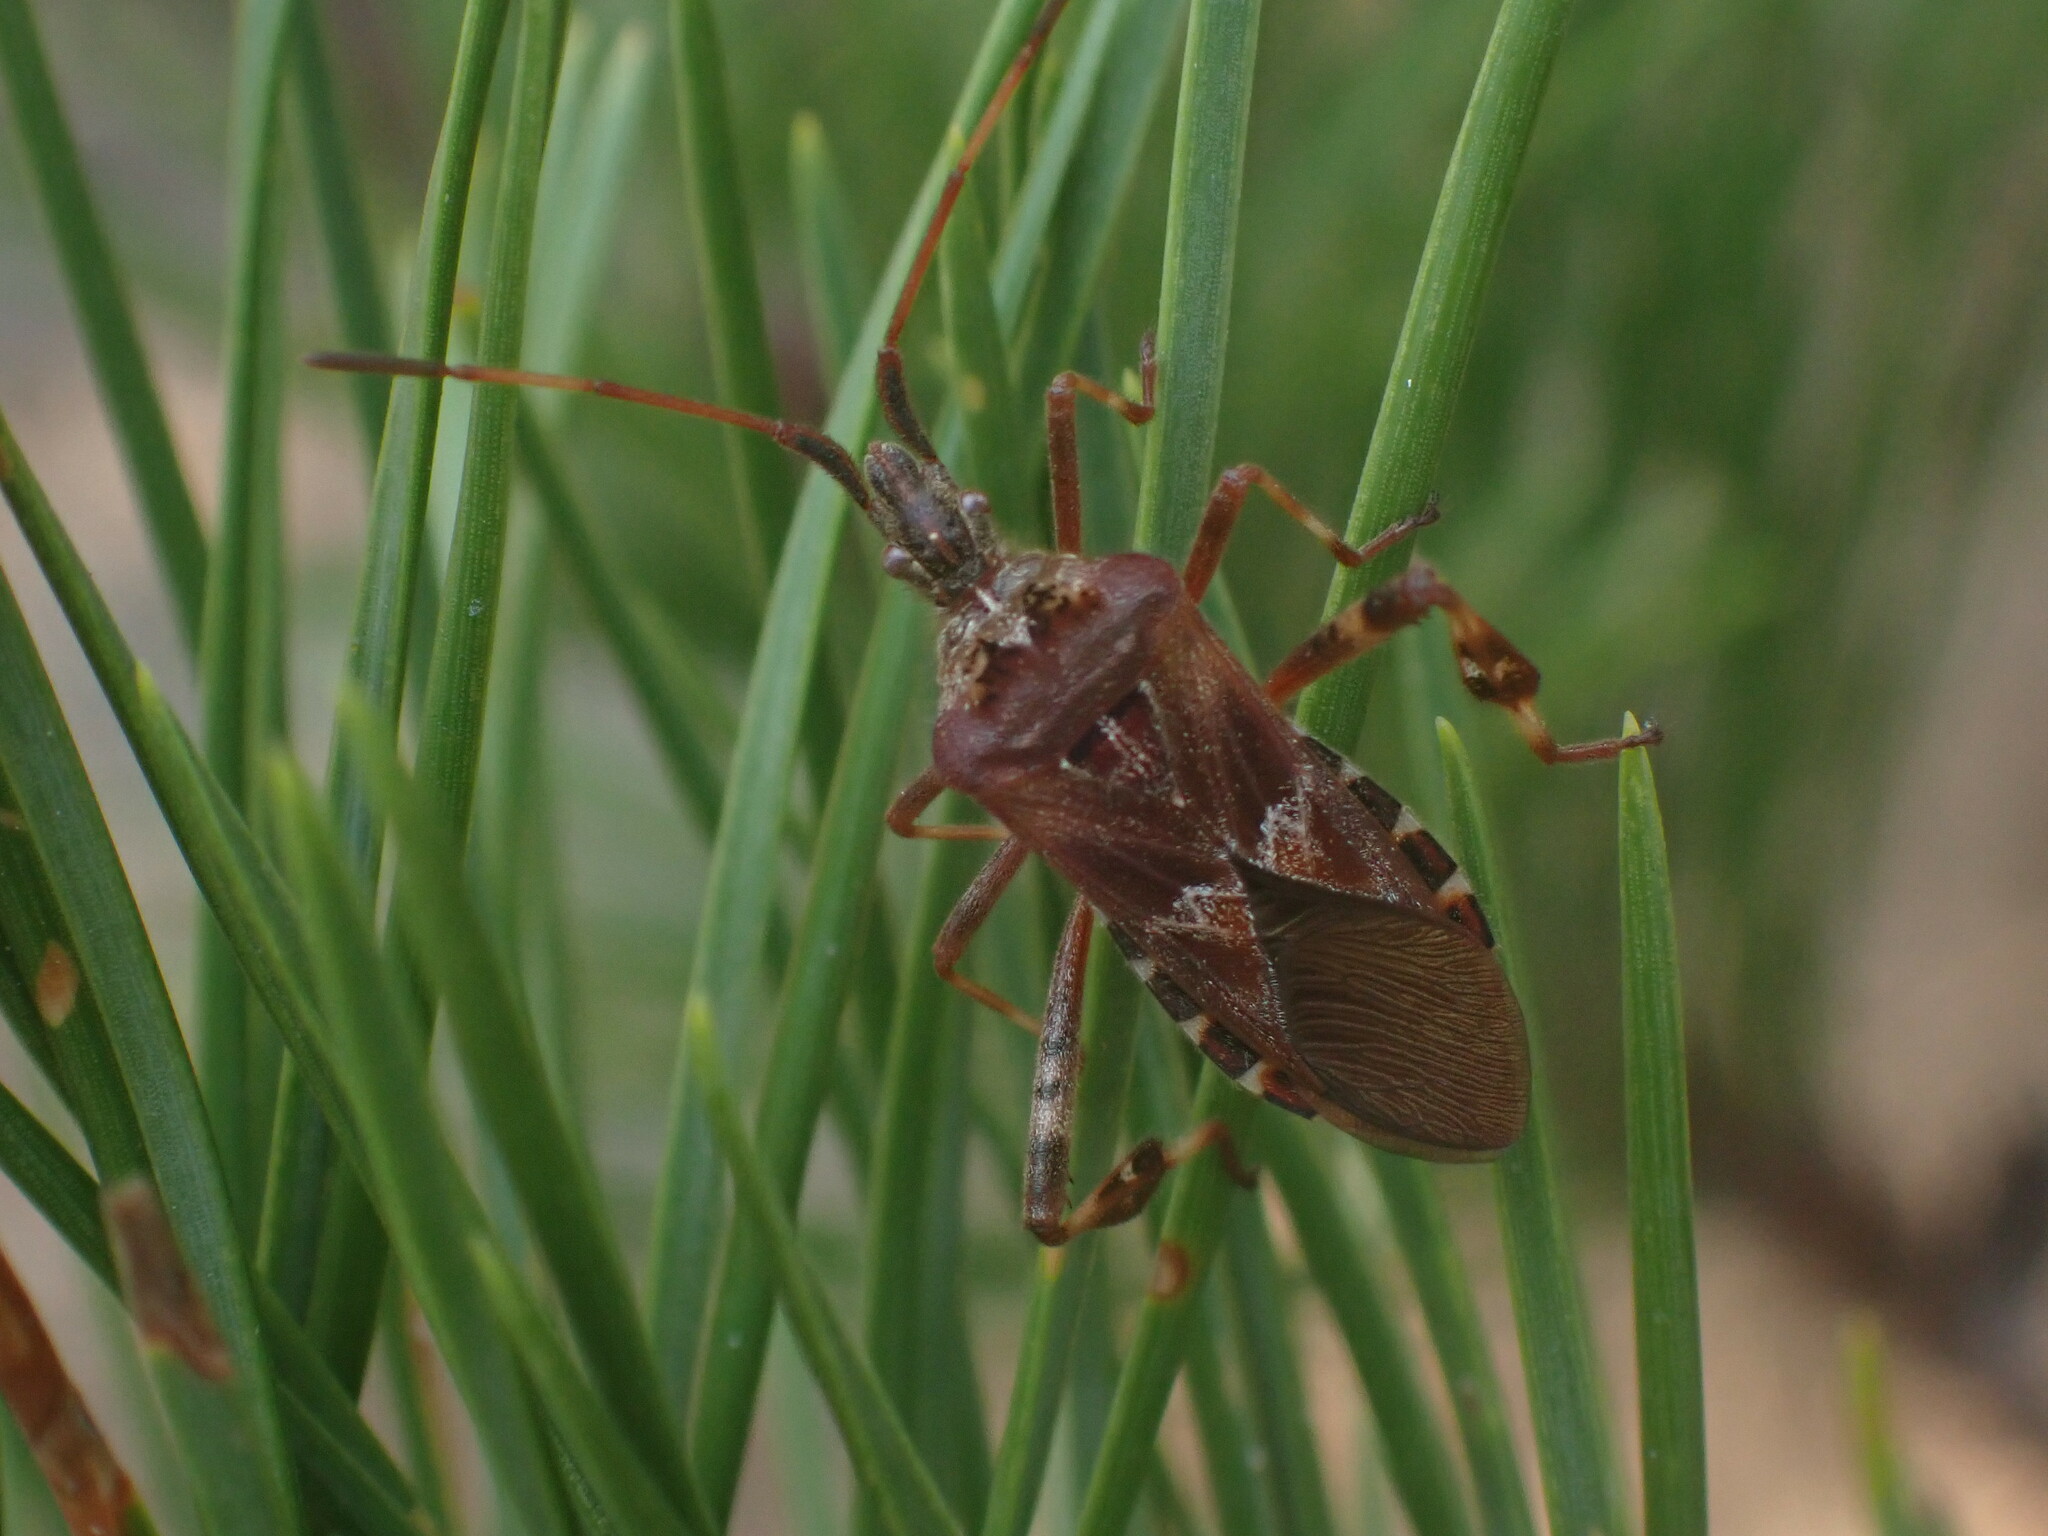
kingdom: Animalia
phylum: Arthropoda
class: Insecta
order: Hemiptera
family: Coreidae
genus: Leptoglossus
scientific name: Leptoglossus occidentalis
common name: Western conifer-seed bug
